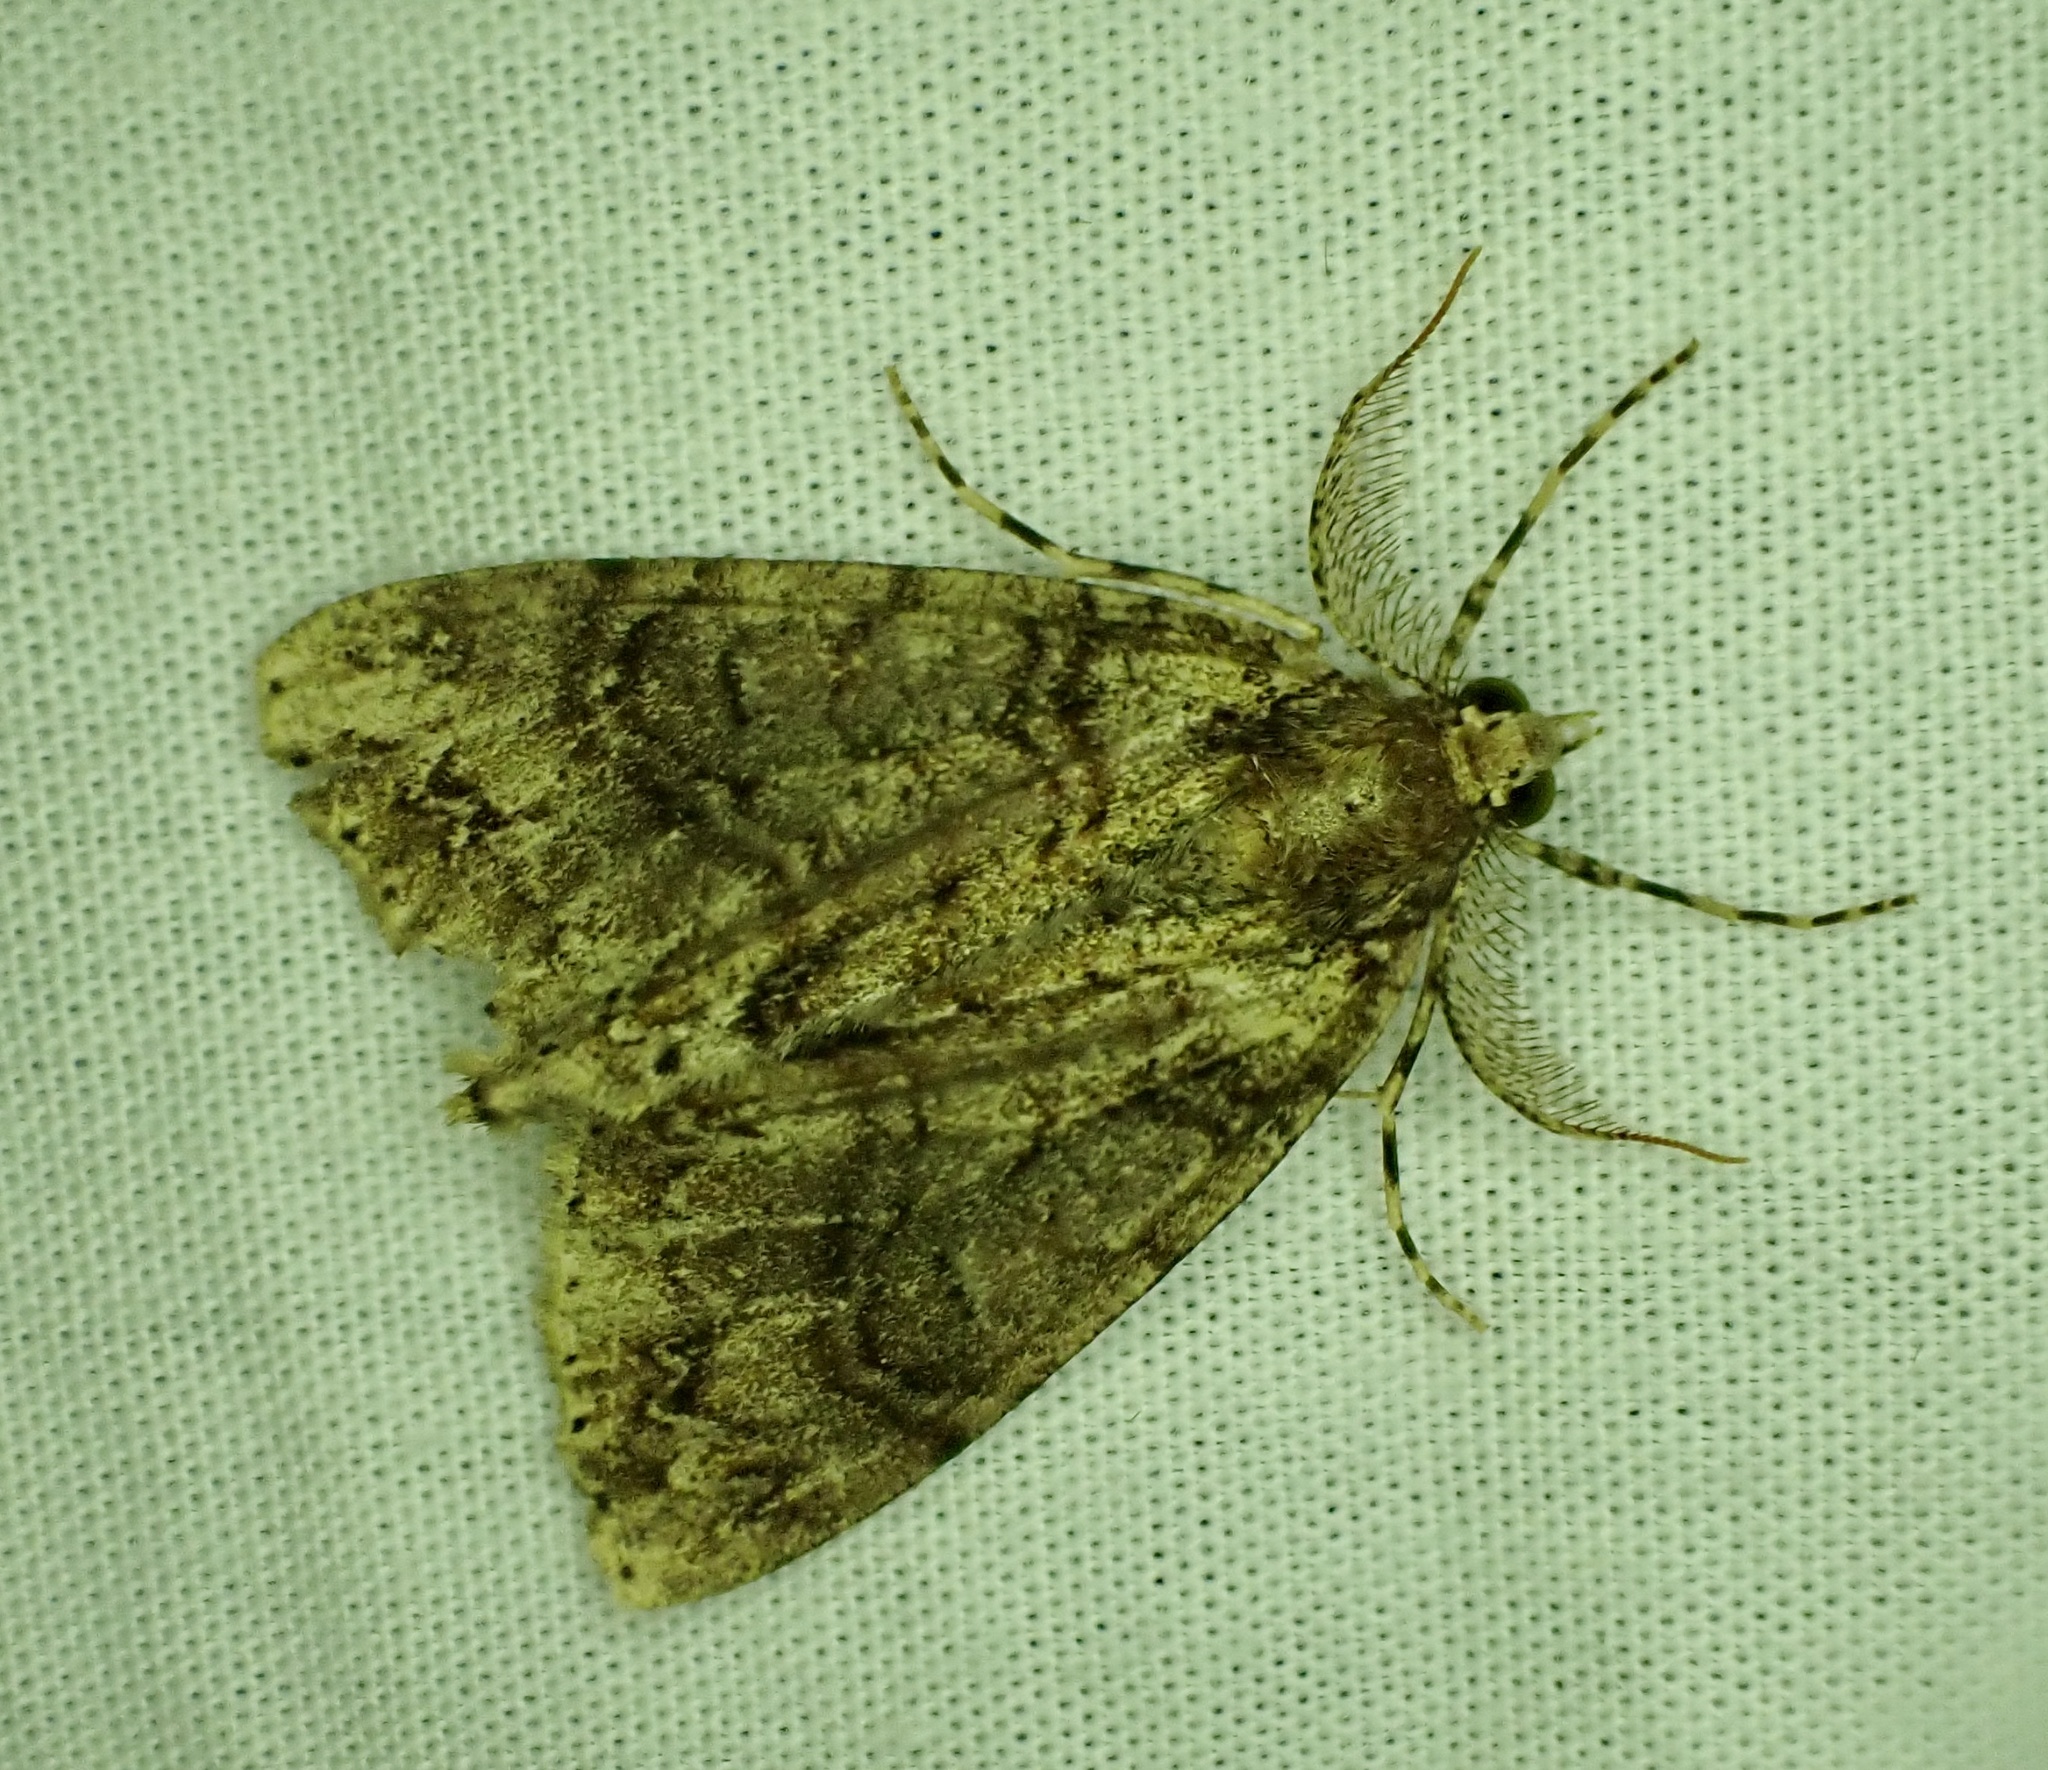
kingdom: Animalia
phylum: Arthropoda
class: Insecta
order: Lepidoptera
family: Geometridae
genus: Pseudocoremia
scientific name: Pseudocoremia suavis
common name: Common forest looper
